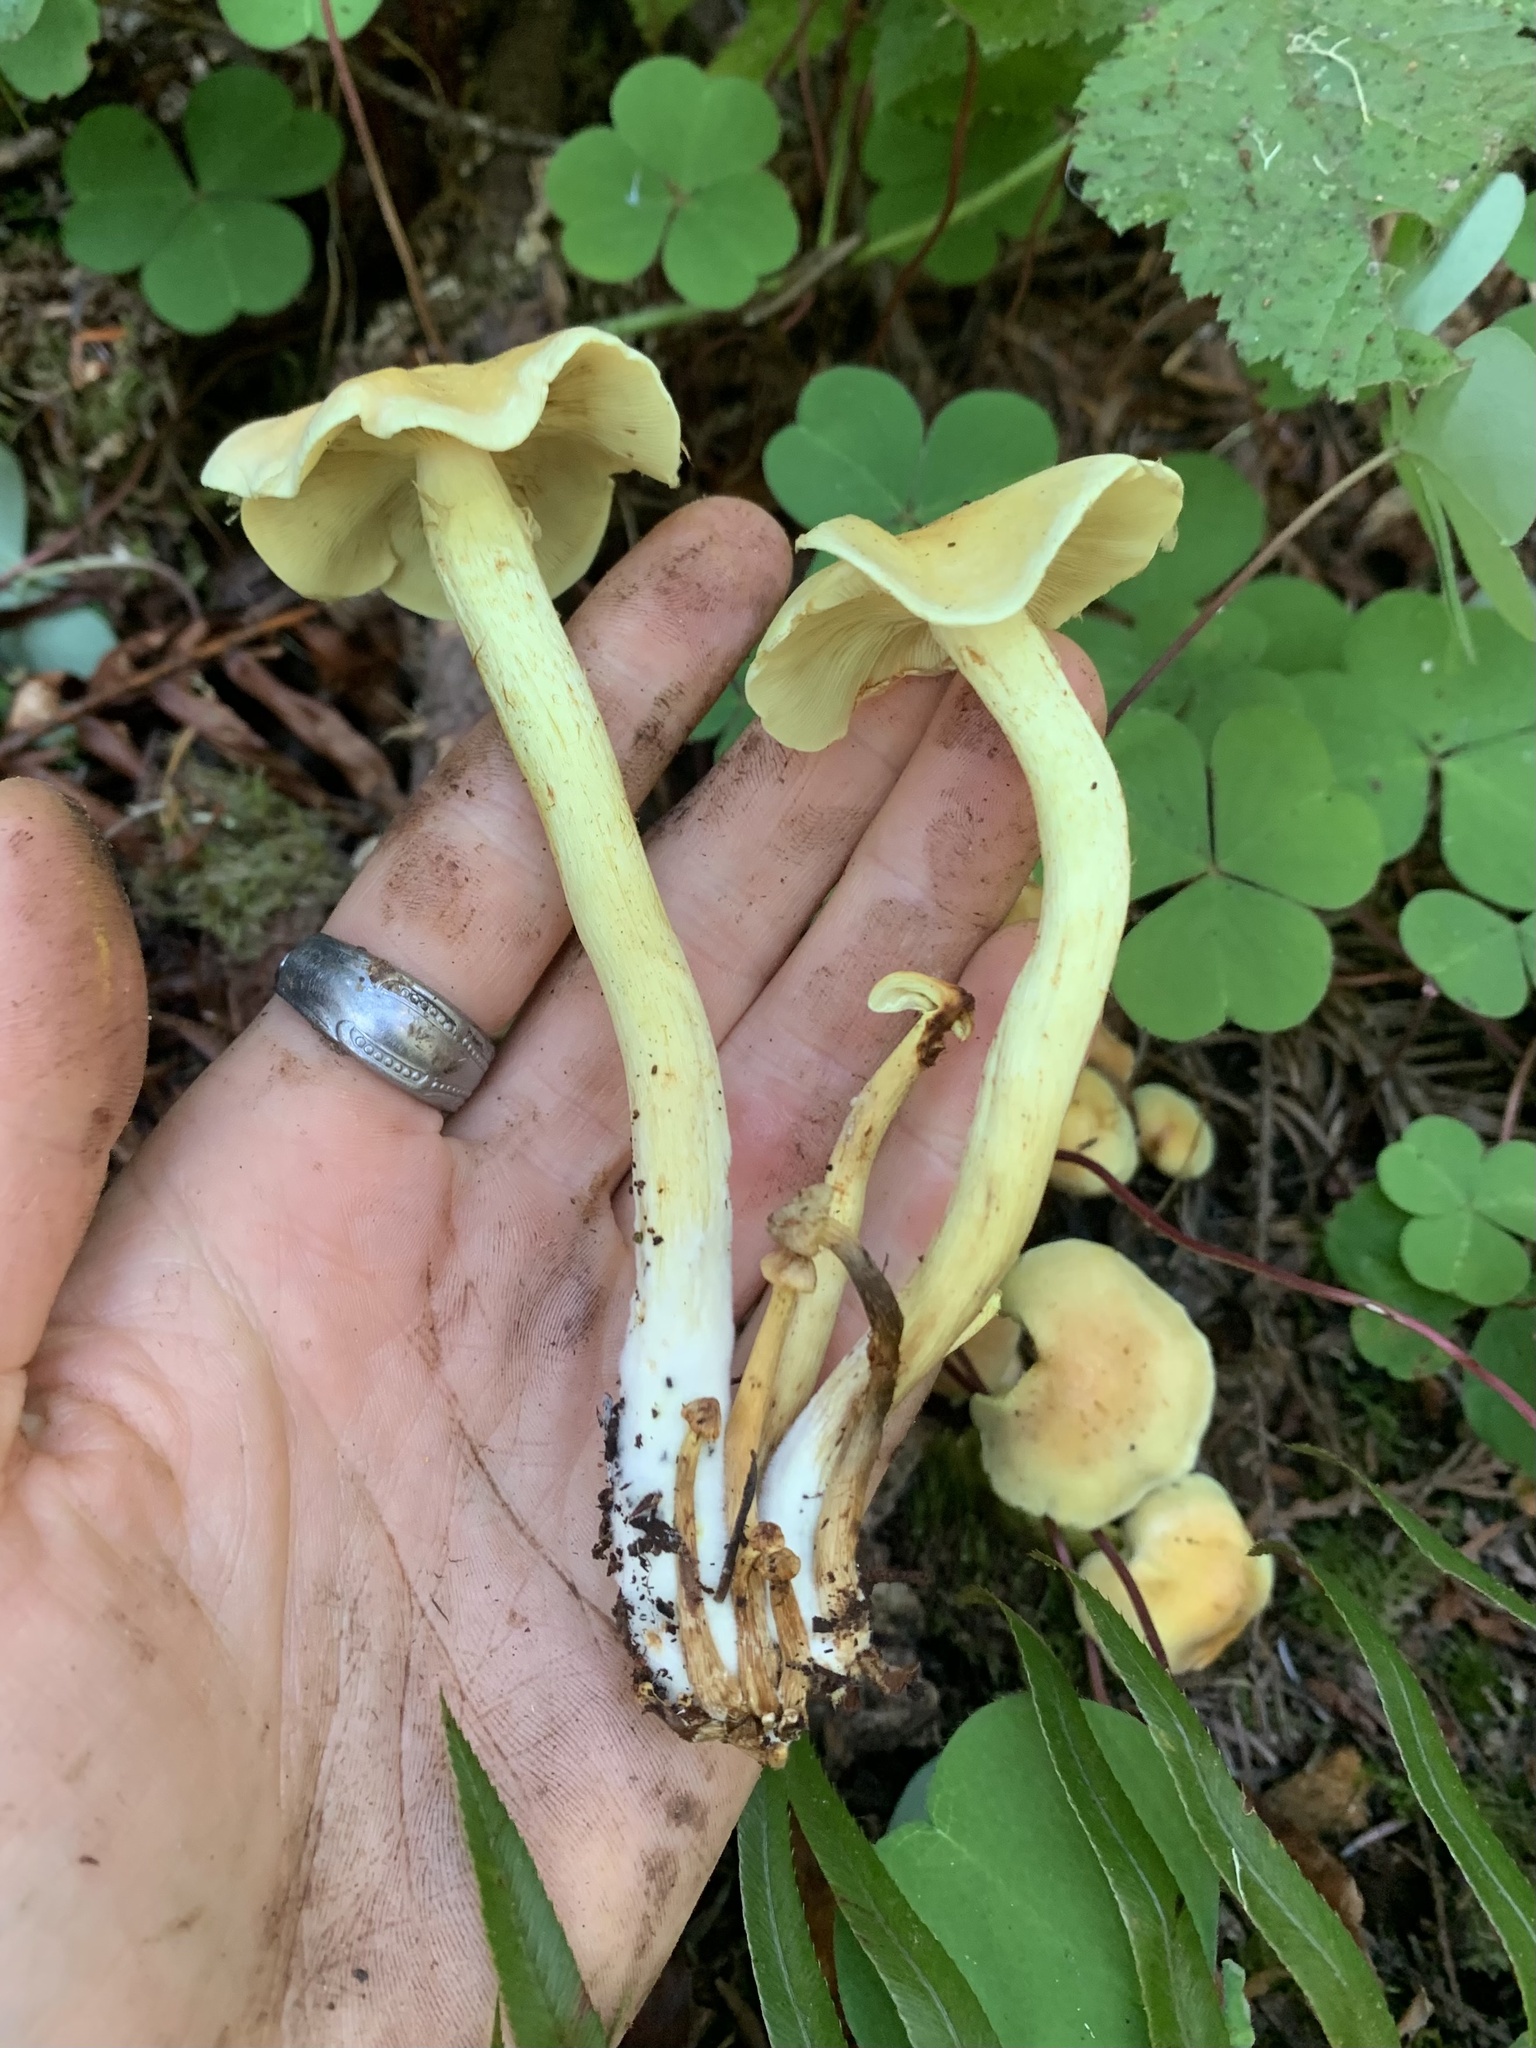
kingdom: Fungi
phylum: Basidiomycota
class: Agaricomycetes
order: Agaricales
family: Strophariaceae
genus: Hypholoma
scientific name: Hypholoma fasciculare
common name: Sulphur tuft
